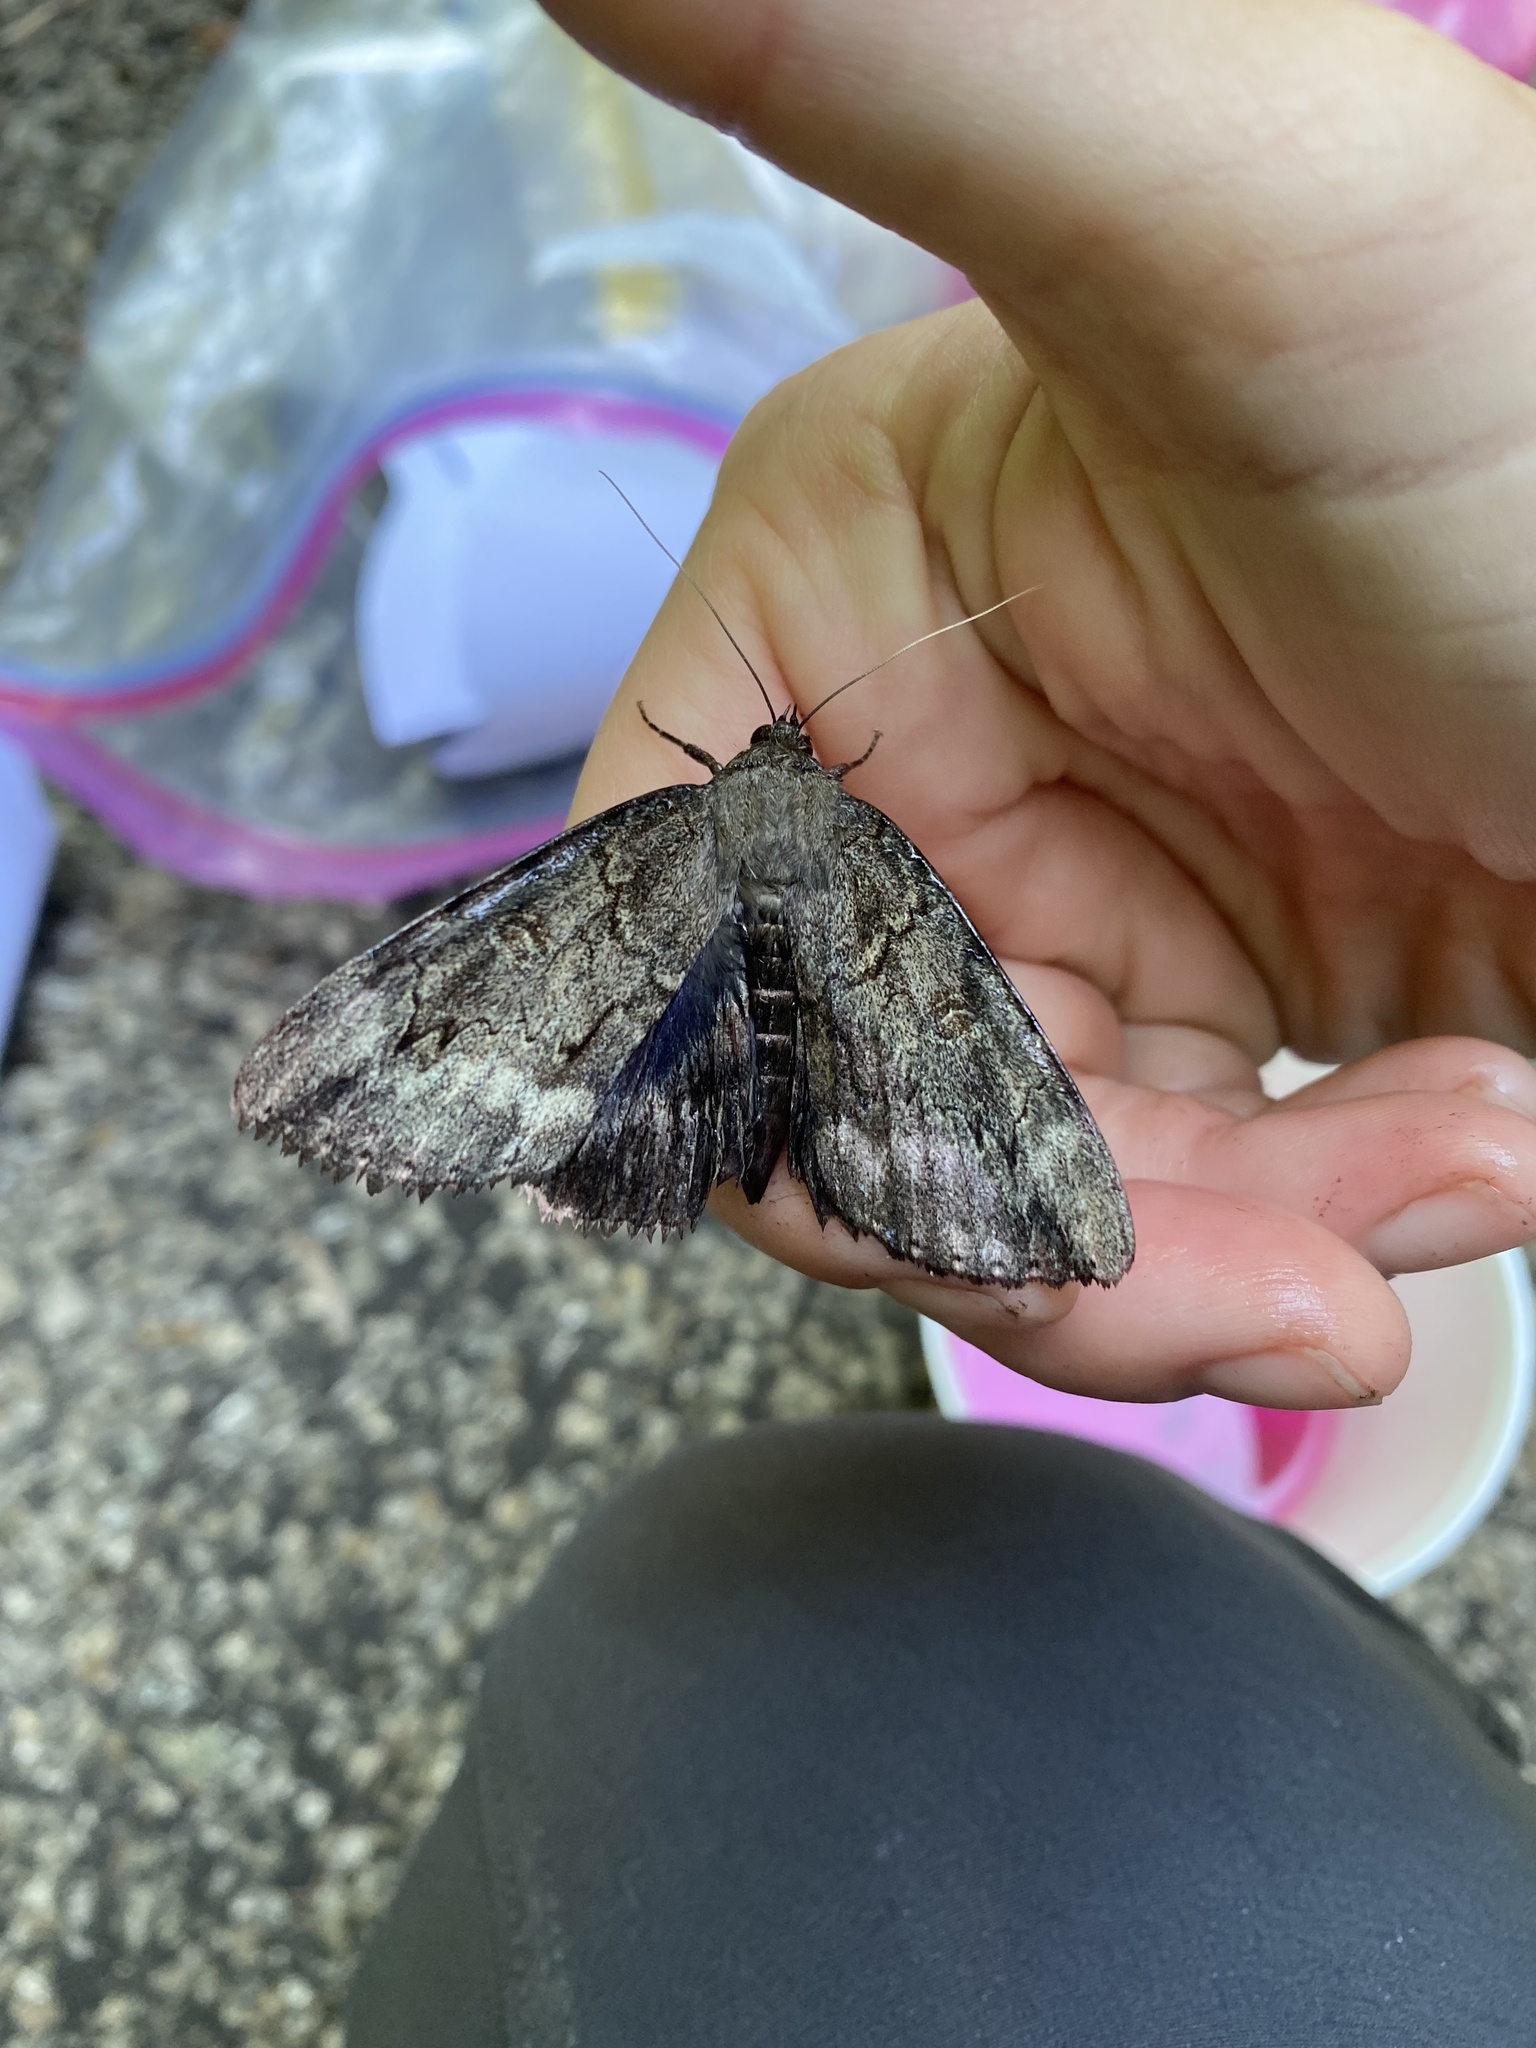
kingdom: Animalia
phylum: Arthropoda
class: Insecta
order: Lepidoptera
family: Erebidae
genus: Catocala
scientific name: Catocala residua
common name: Residua underwing
